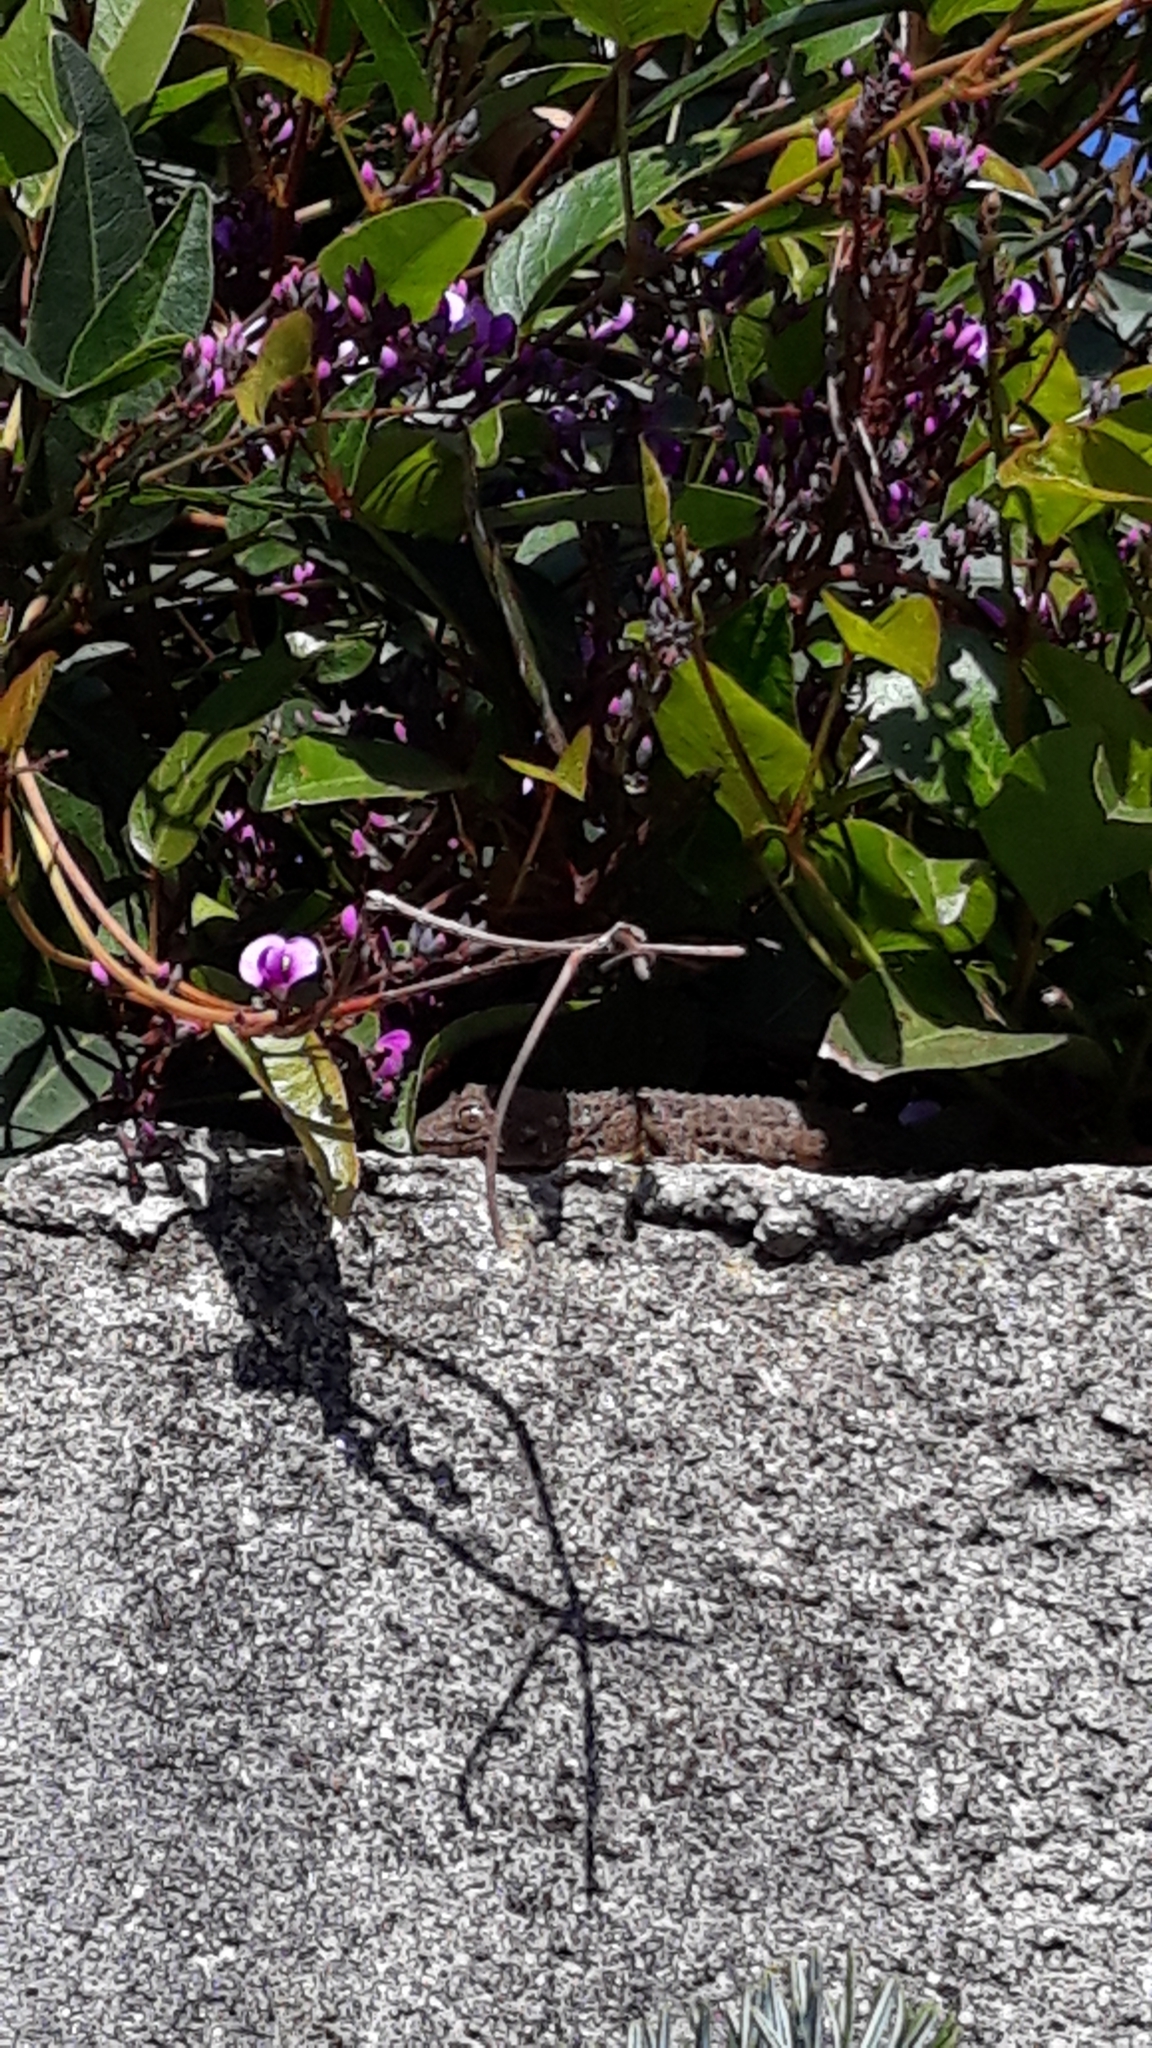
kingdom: Animalia
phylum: Chordata
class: Squamata
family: Phyllodactylidae
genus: Tarentola
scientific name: Tarentola mauritanica
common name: Moorish gecko
